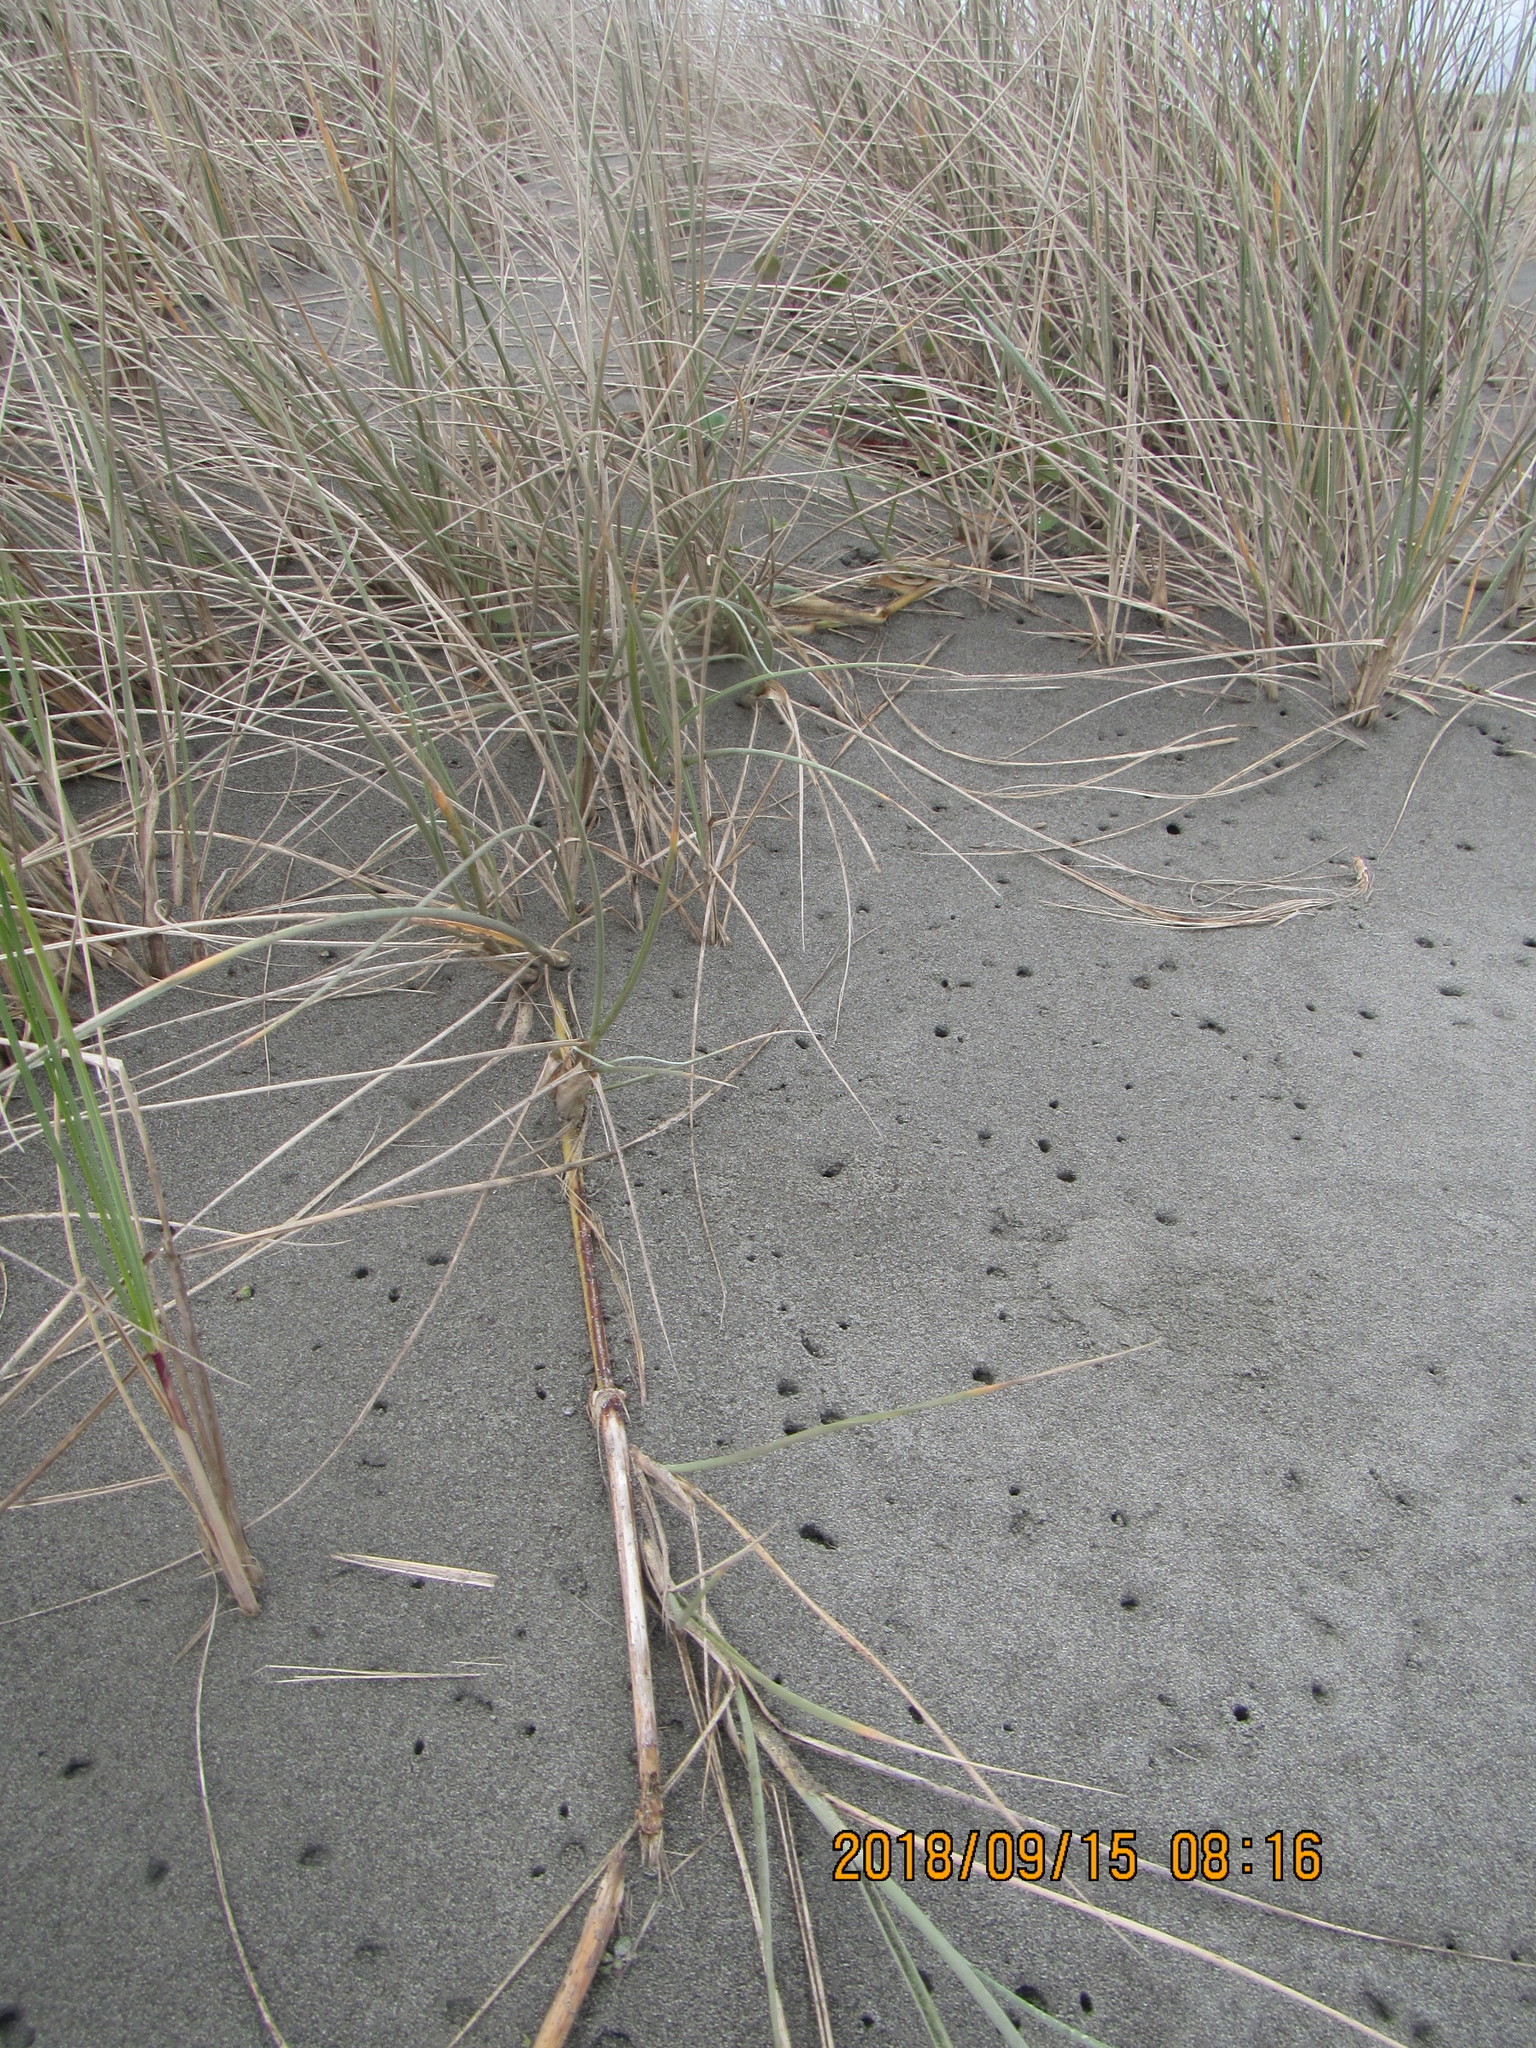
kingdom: Plantae
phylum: Tracheophyta
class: Liliopsida
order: Poales
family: Poaceae
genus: Spinifex
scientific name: Spinifex sericeus
